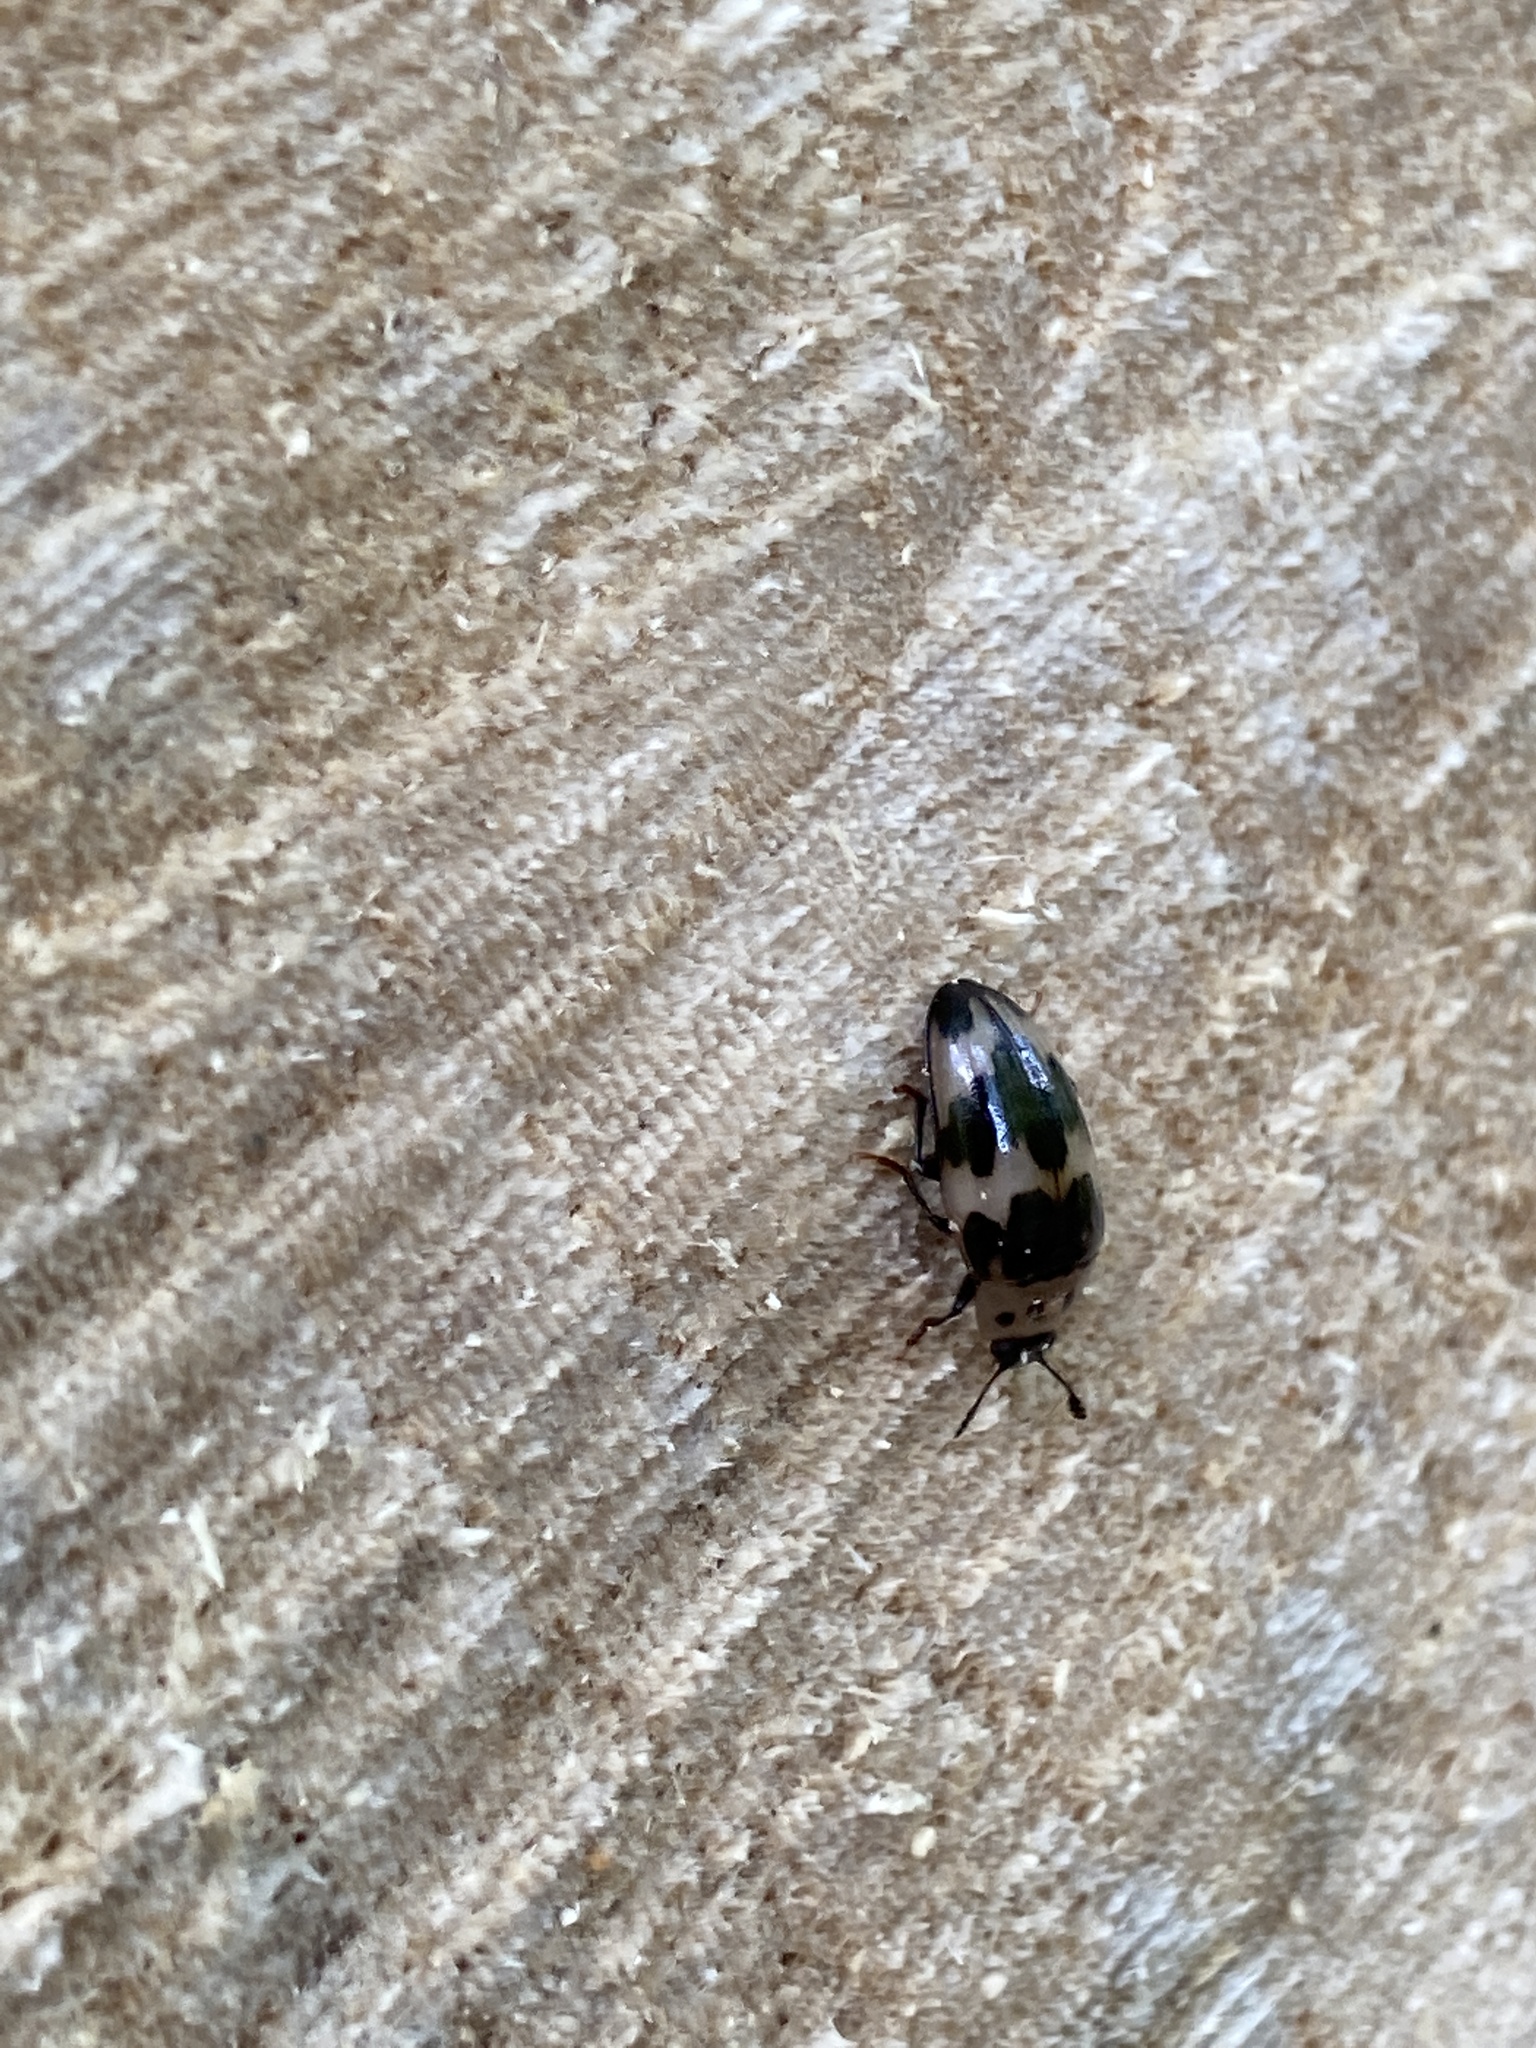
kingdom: Animalia
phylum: Arthropoda
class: Insecta
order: Coleoptera
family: Erotylidae
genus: Ischyrus
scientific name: Ischyrus quadripunctatus
